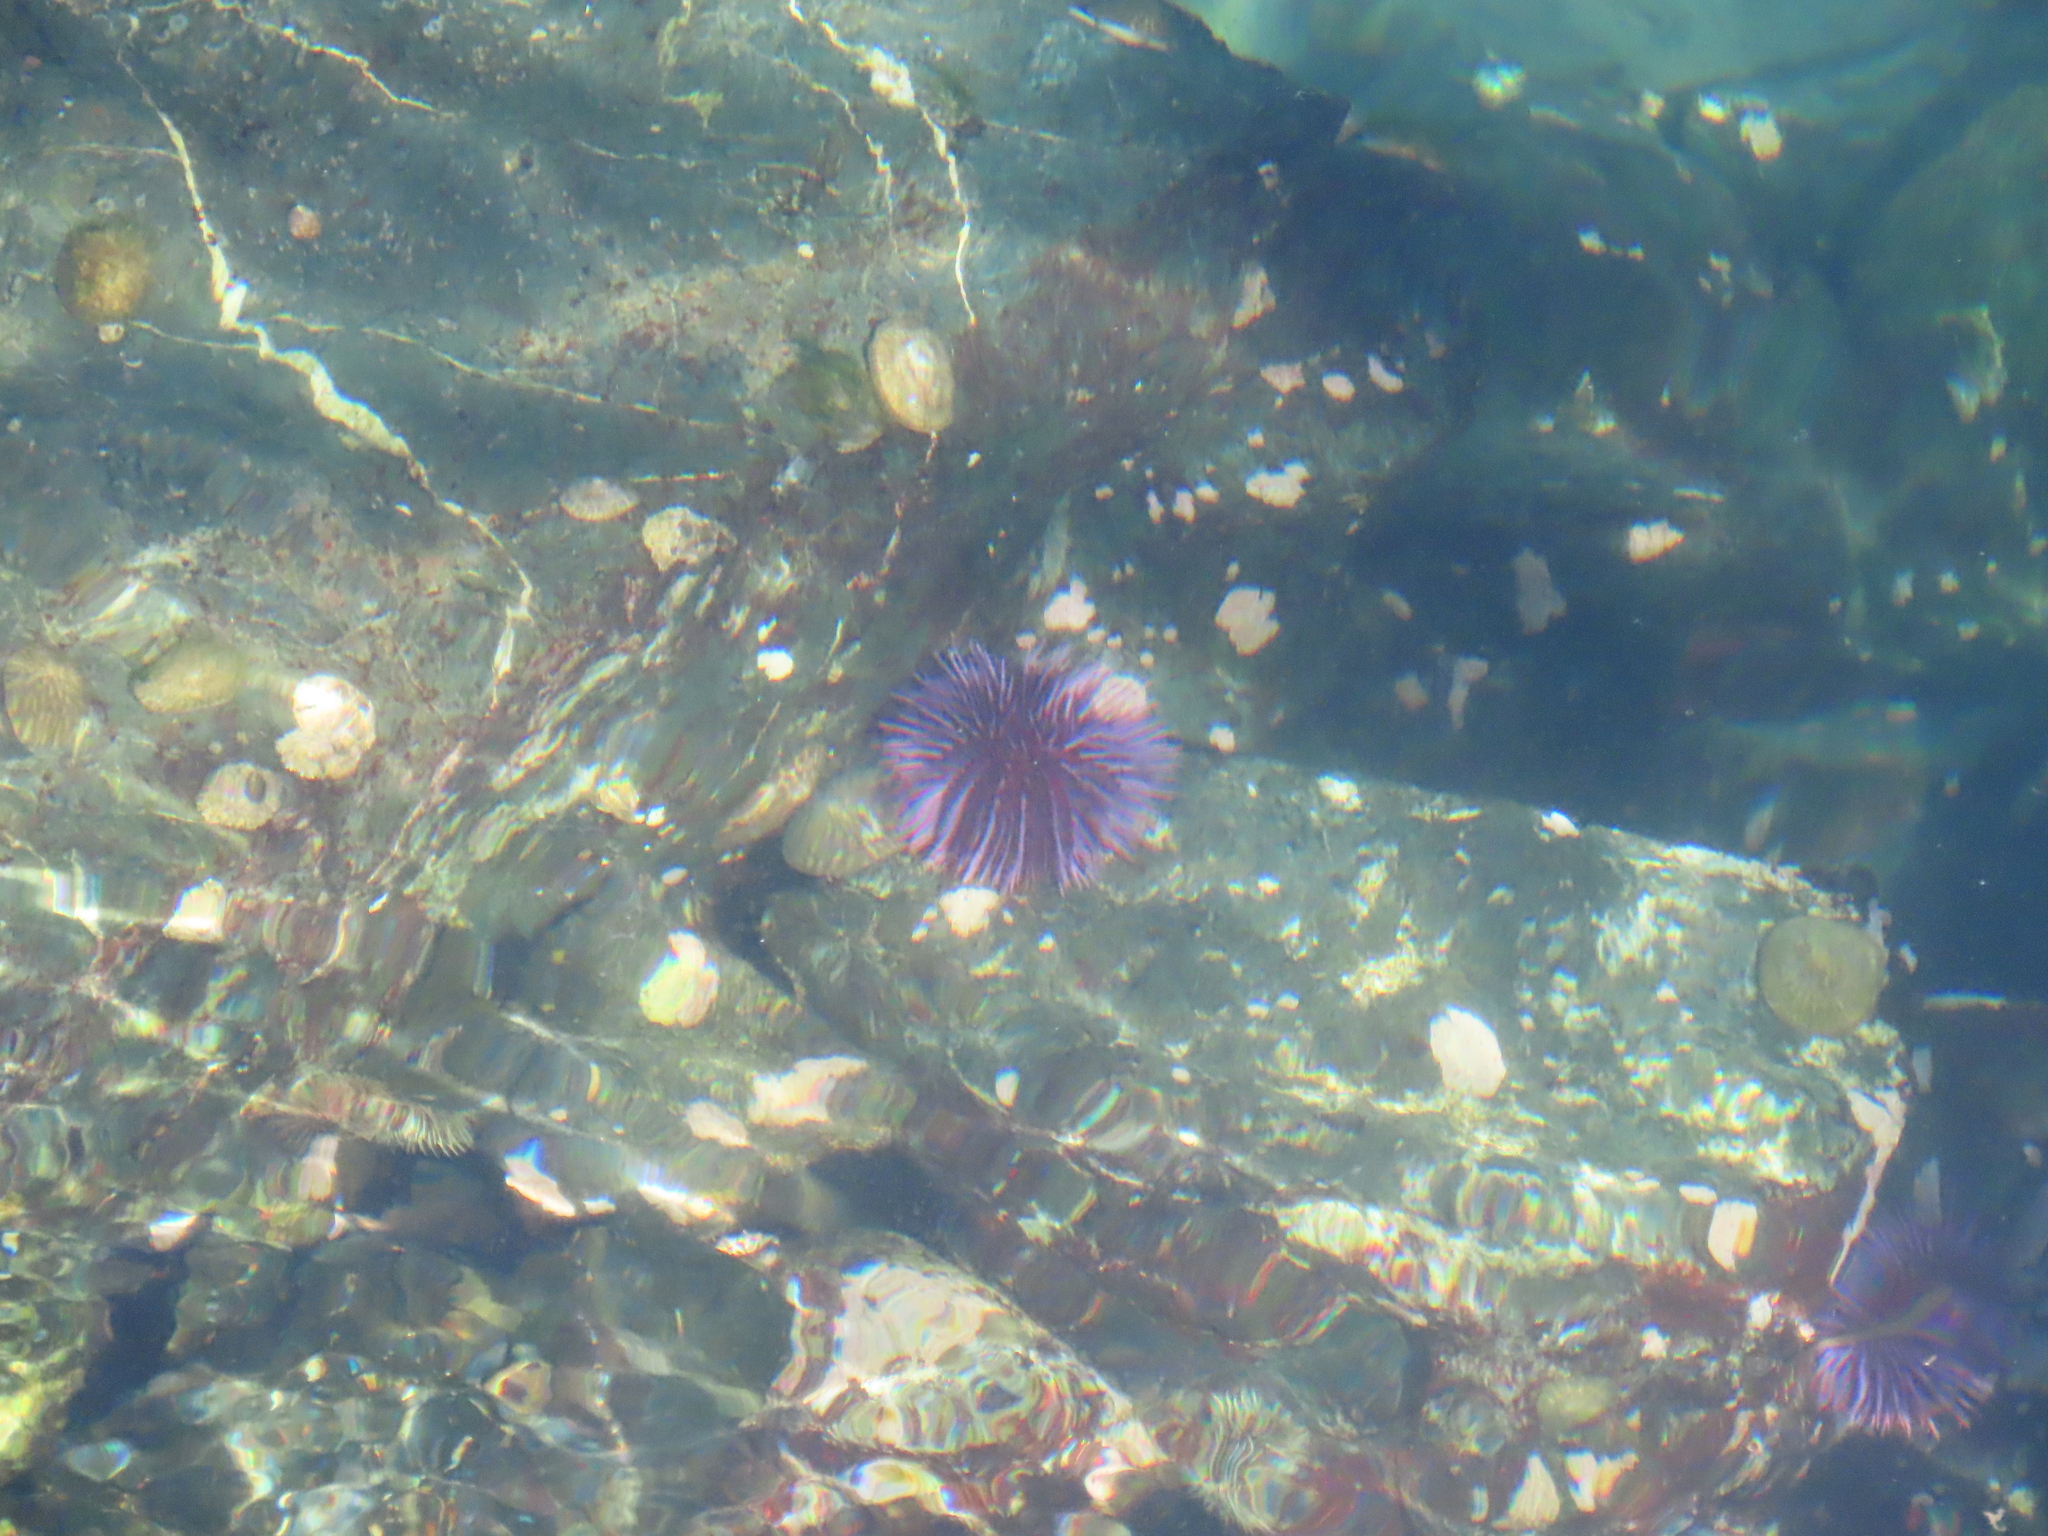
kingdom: Animalia
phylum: Echinodermata
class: Echinoidea
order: Camarodonta
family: Strongylocentrotidae
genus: Strongylocentrotus
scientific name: Strongylocentrotus purpuratus
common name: Purple sea urchin
